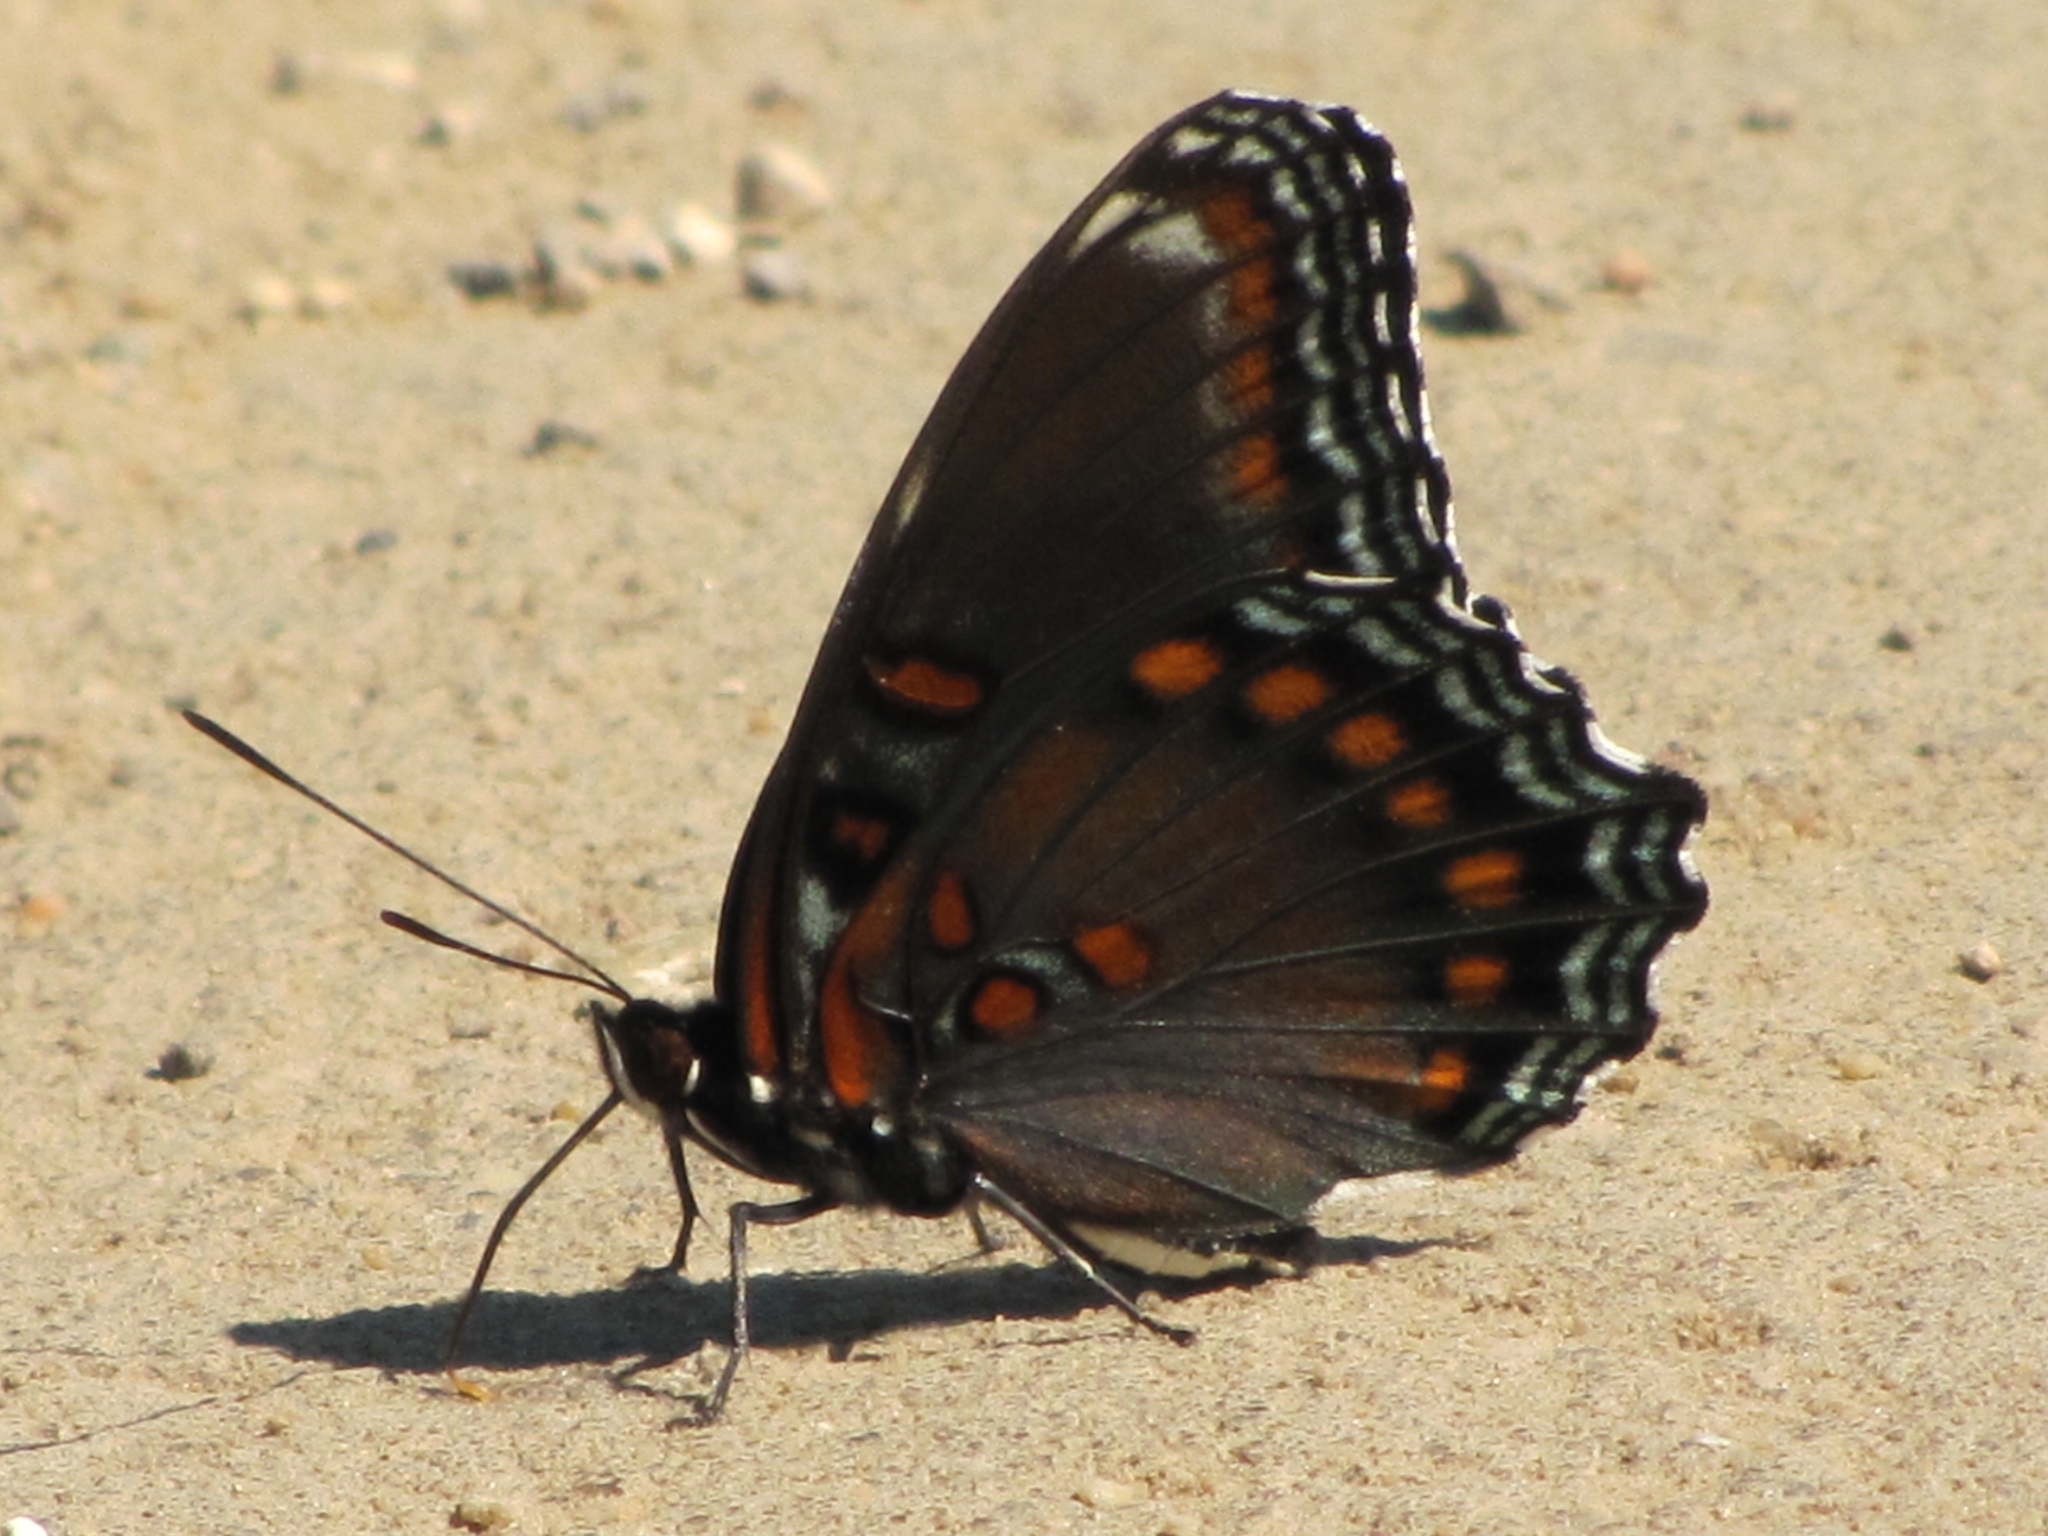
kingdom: Animalia
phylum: Arthropoda
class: Insecta
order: Lepidoptera
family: Nymphalidae
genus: Limenitis
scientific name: Limenitis astyanax
